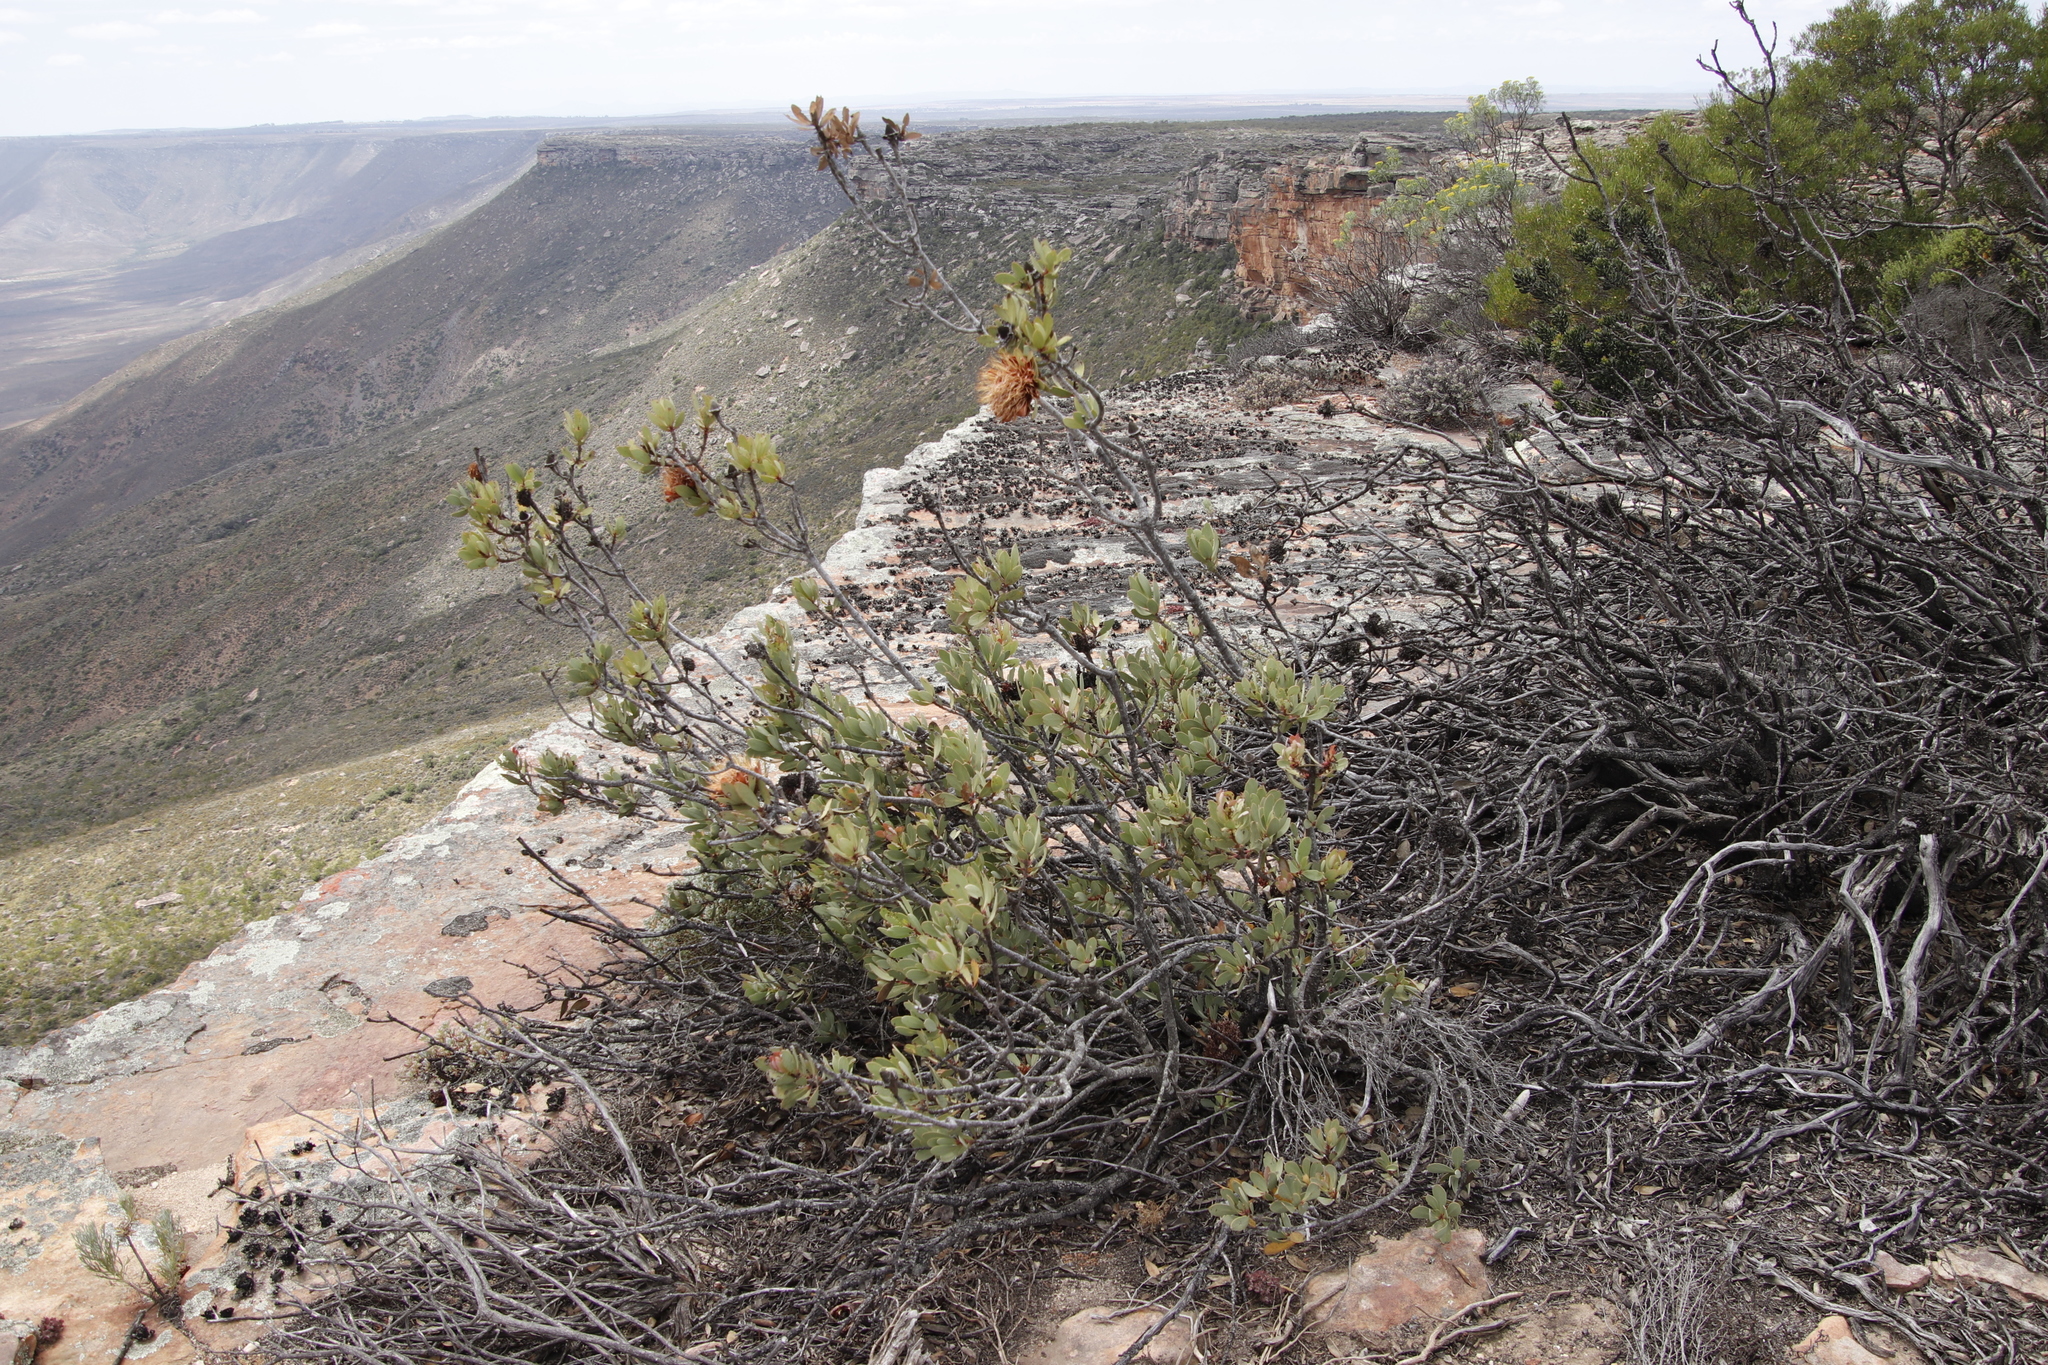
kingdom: Plantae
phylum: Tracheophyta
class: Magnoliopsida
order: Proteales
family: Proteaceae
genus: Protea
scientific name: Protea glabra
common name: Chestnut sugarbush
